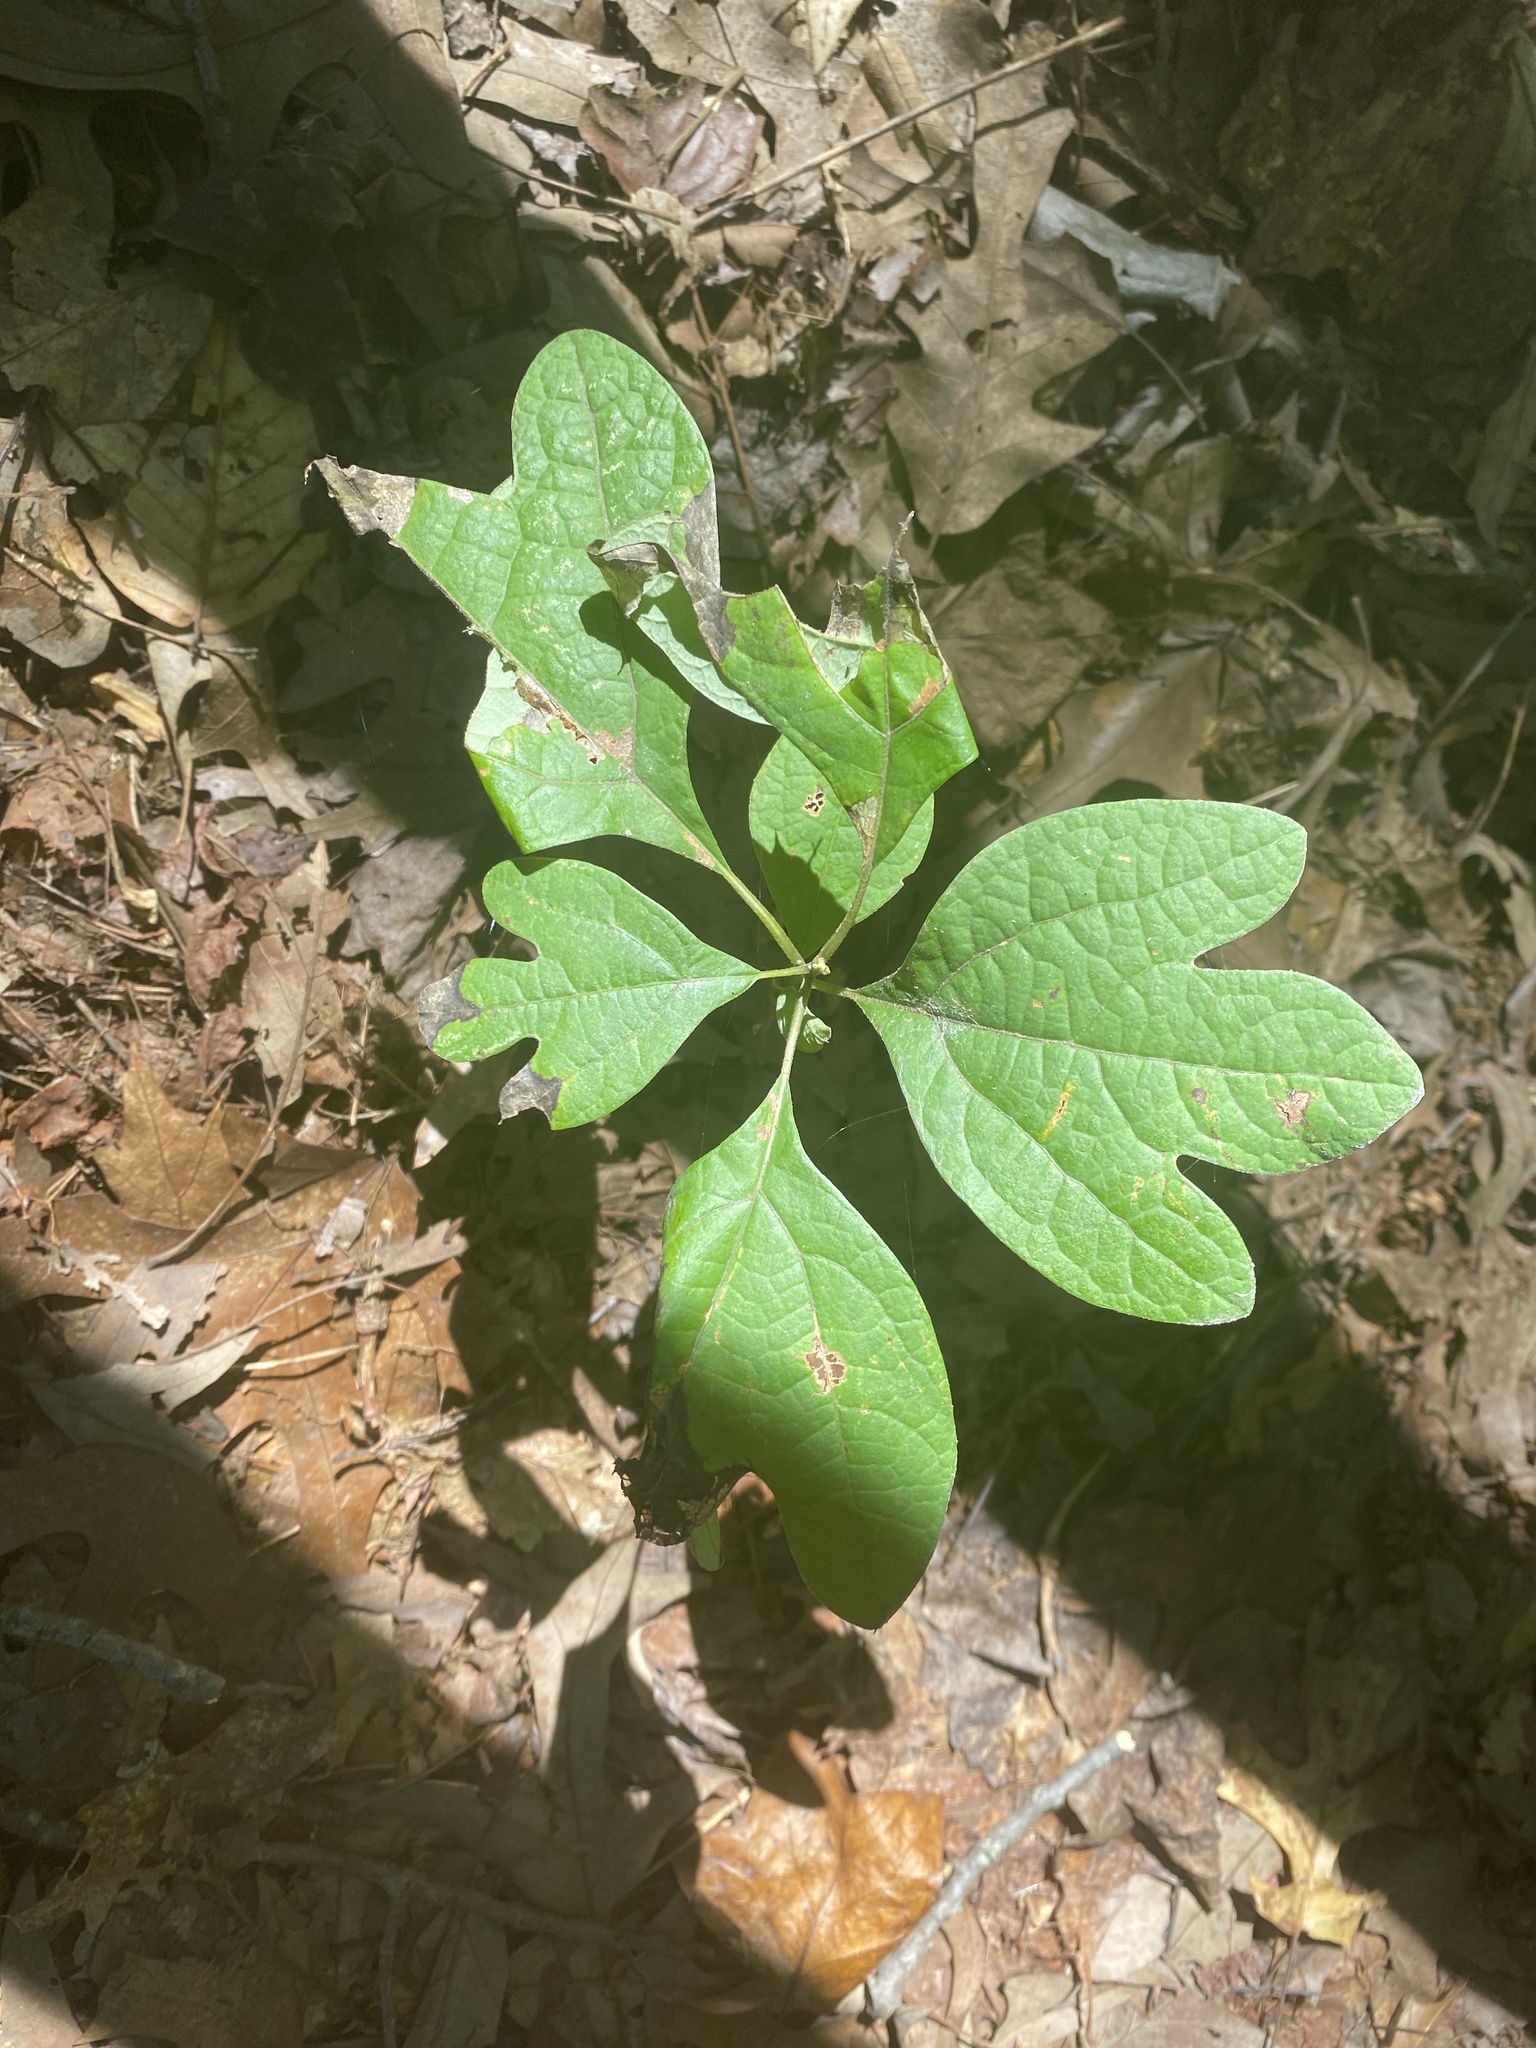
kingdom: Plantae
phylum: Tracheophyta
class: Magnoliopsida
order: Laurales
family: Lauraceae
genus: Sassafras
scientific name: Sassafras albidum
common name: Sassafras
